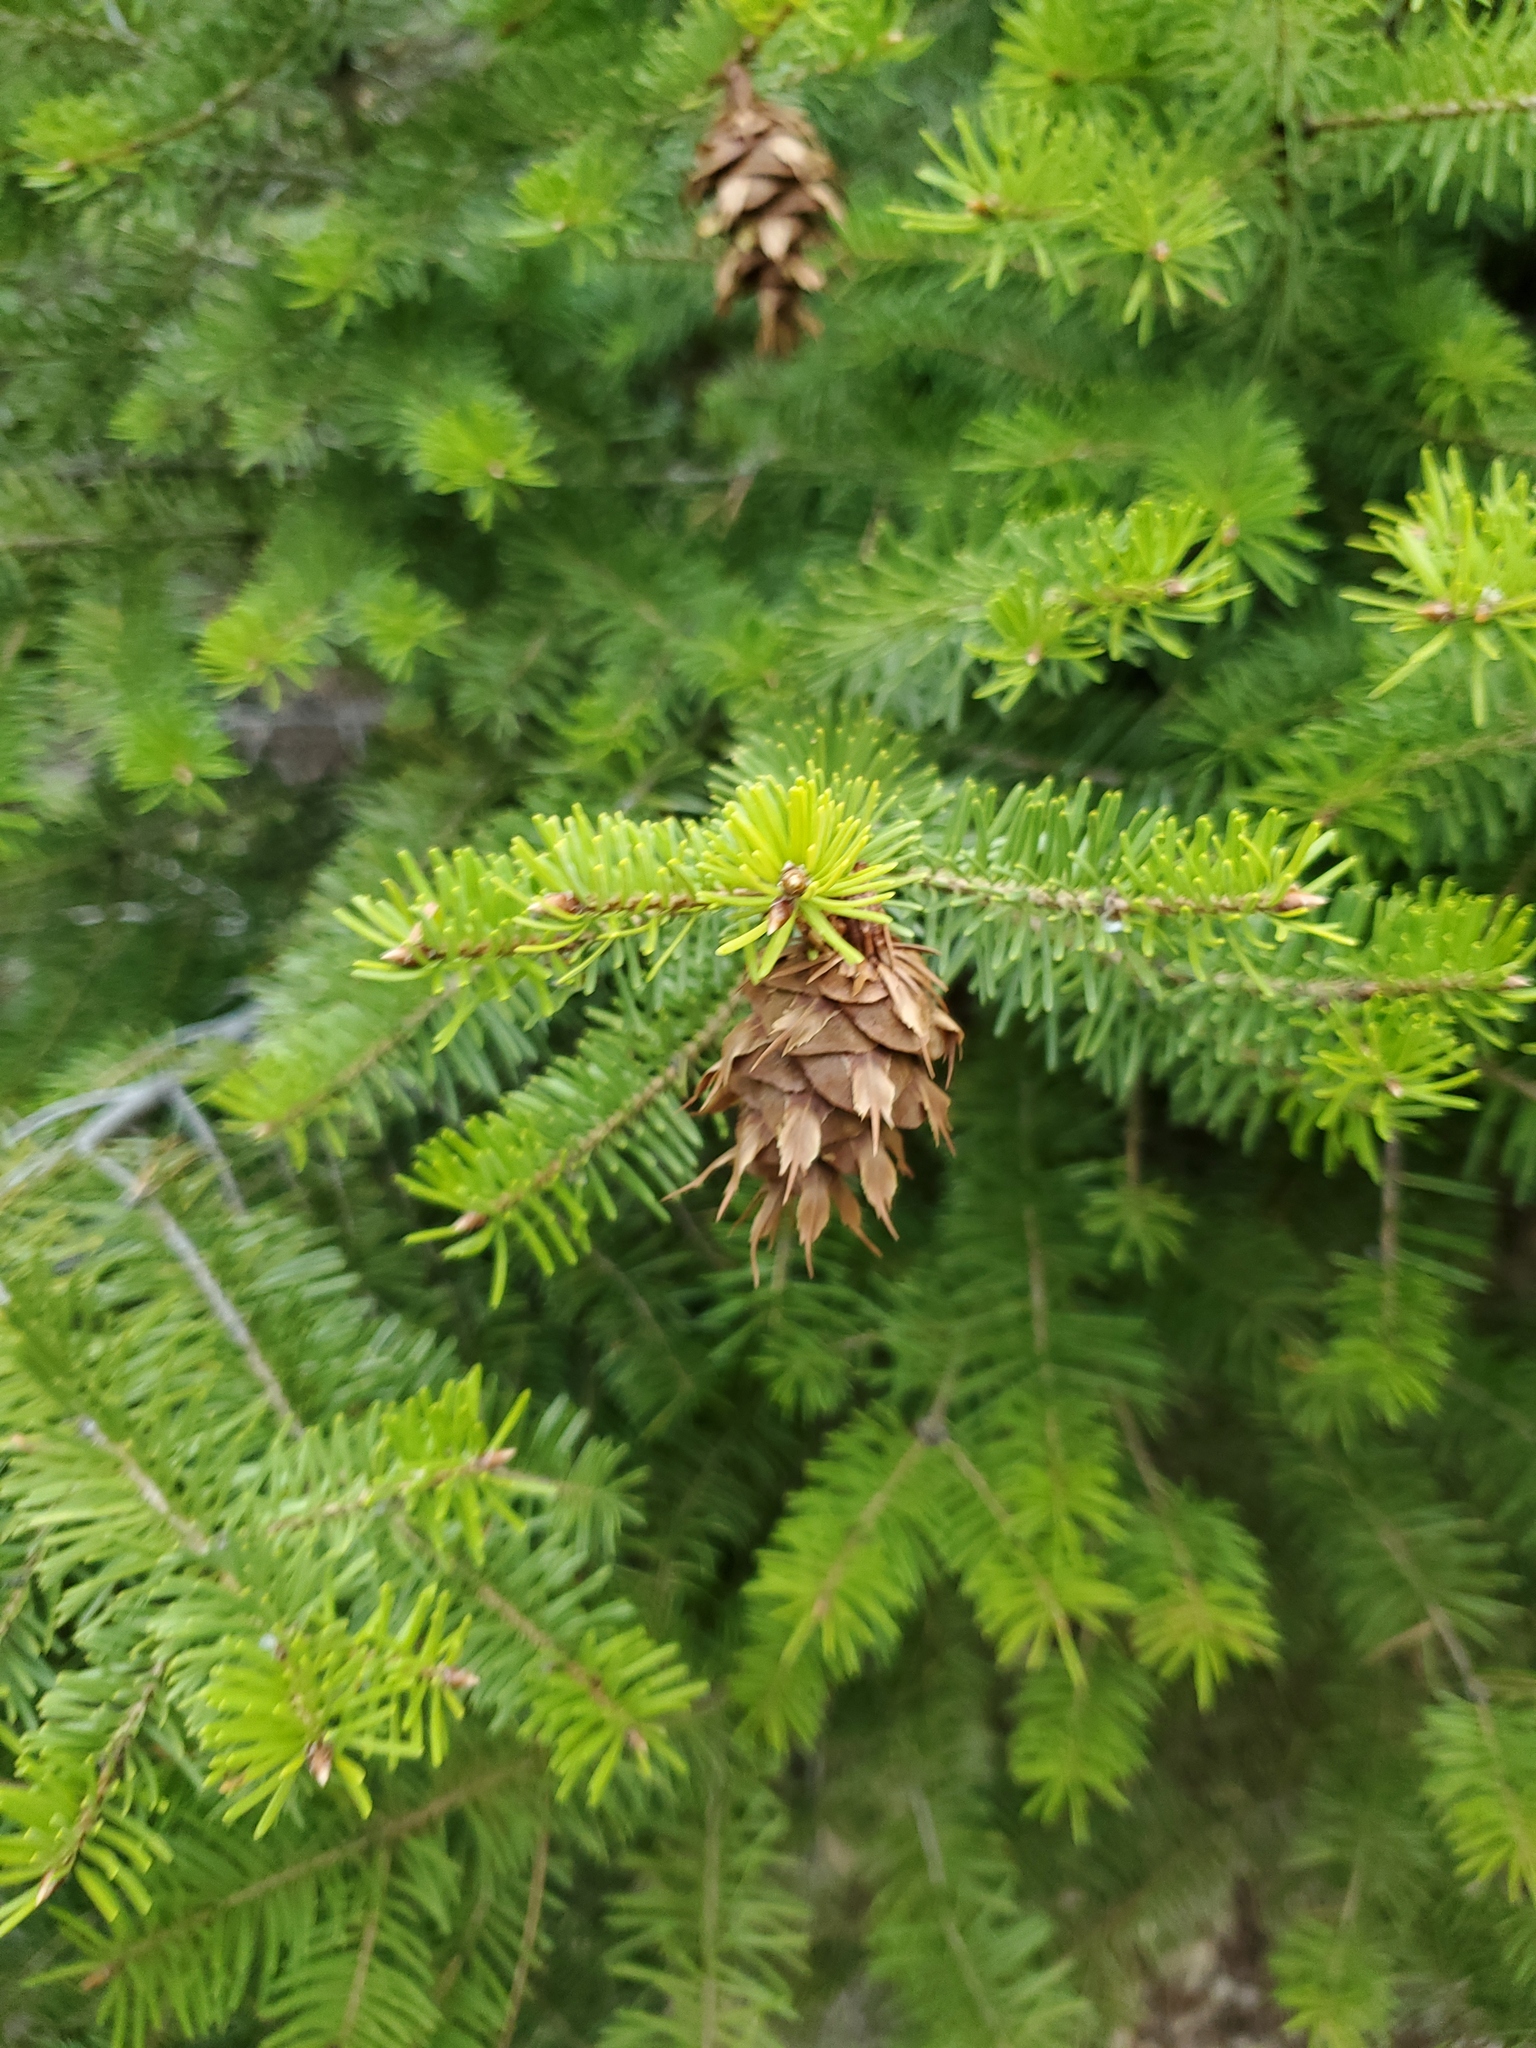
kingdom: Plantae
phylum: Tracheophyta
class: Pinopsida
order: Pinales
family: Pinaceae
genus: Pseudotsuga
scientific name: Pseudotsuga menziesii
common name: Douglas fir
